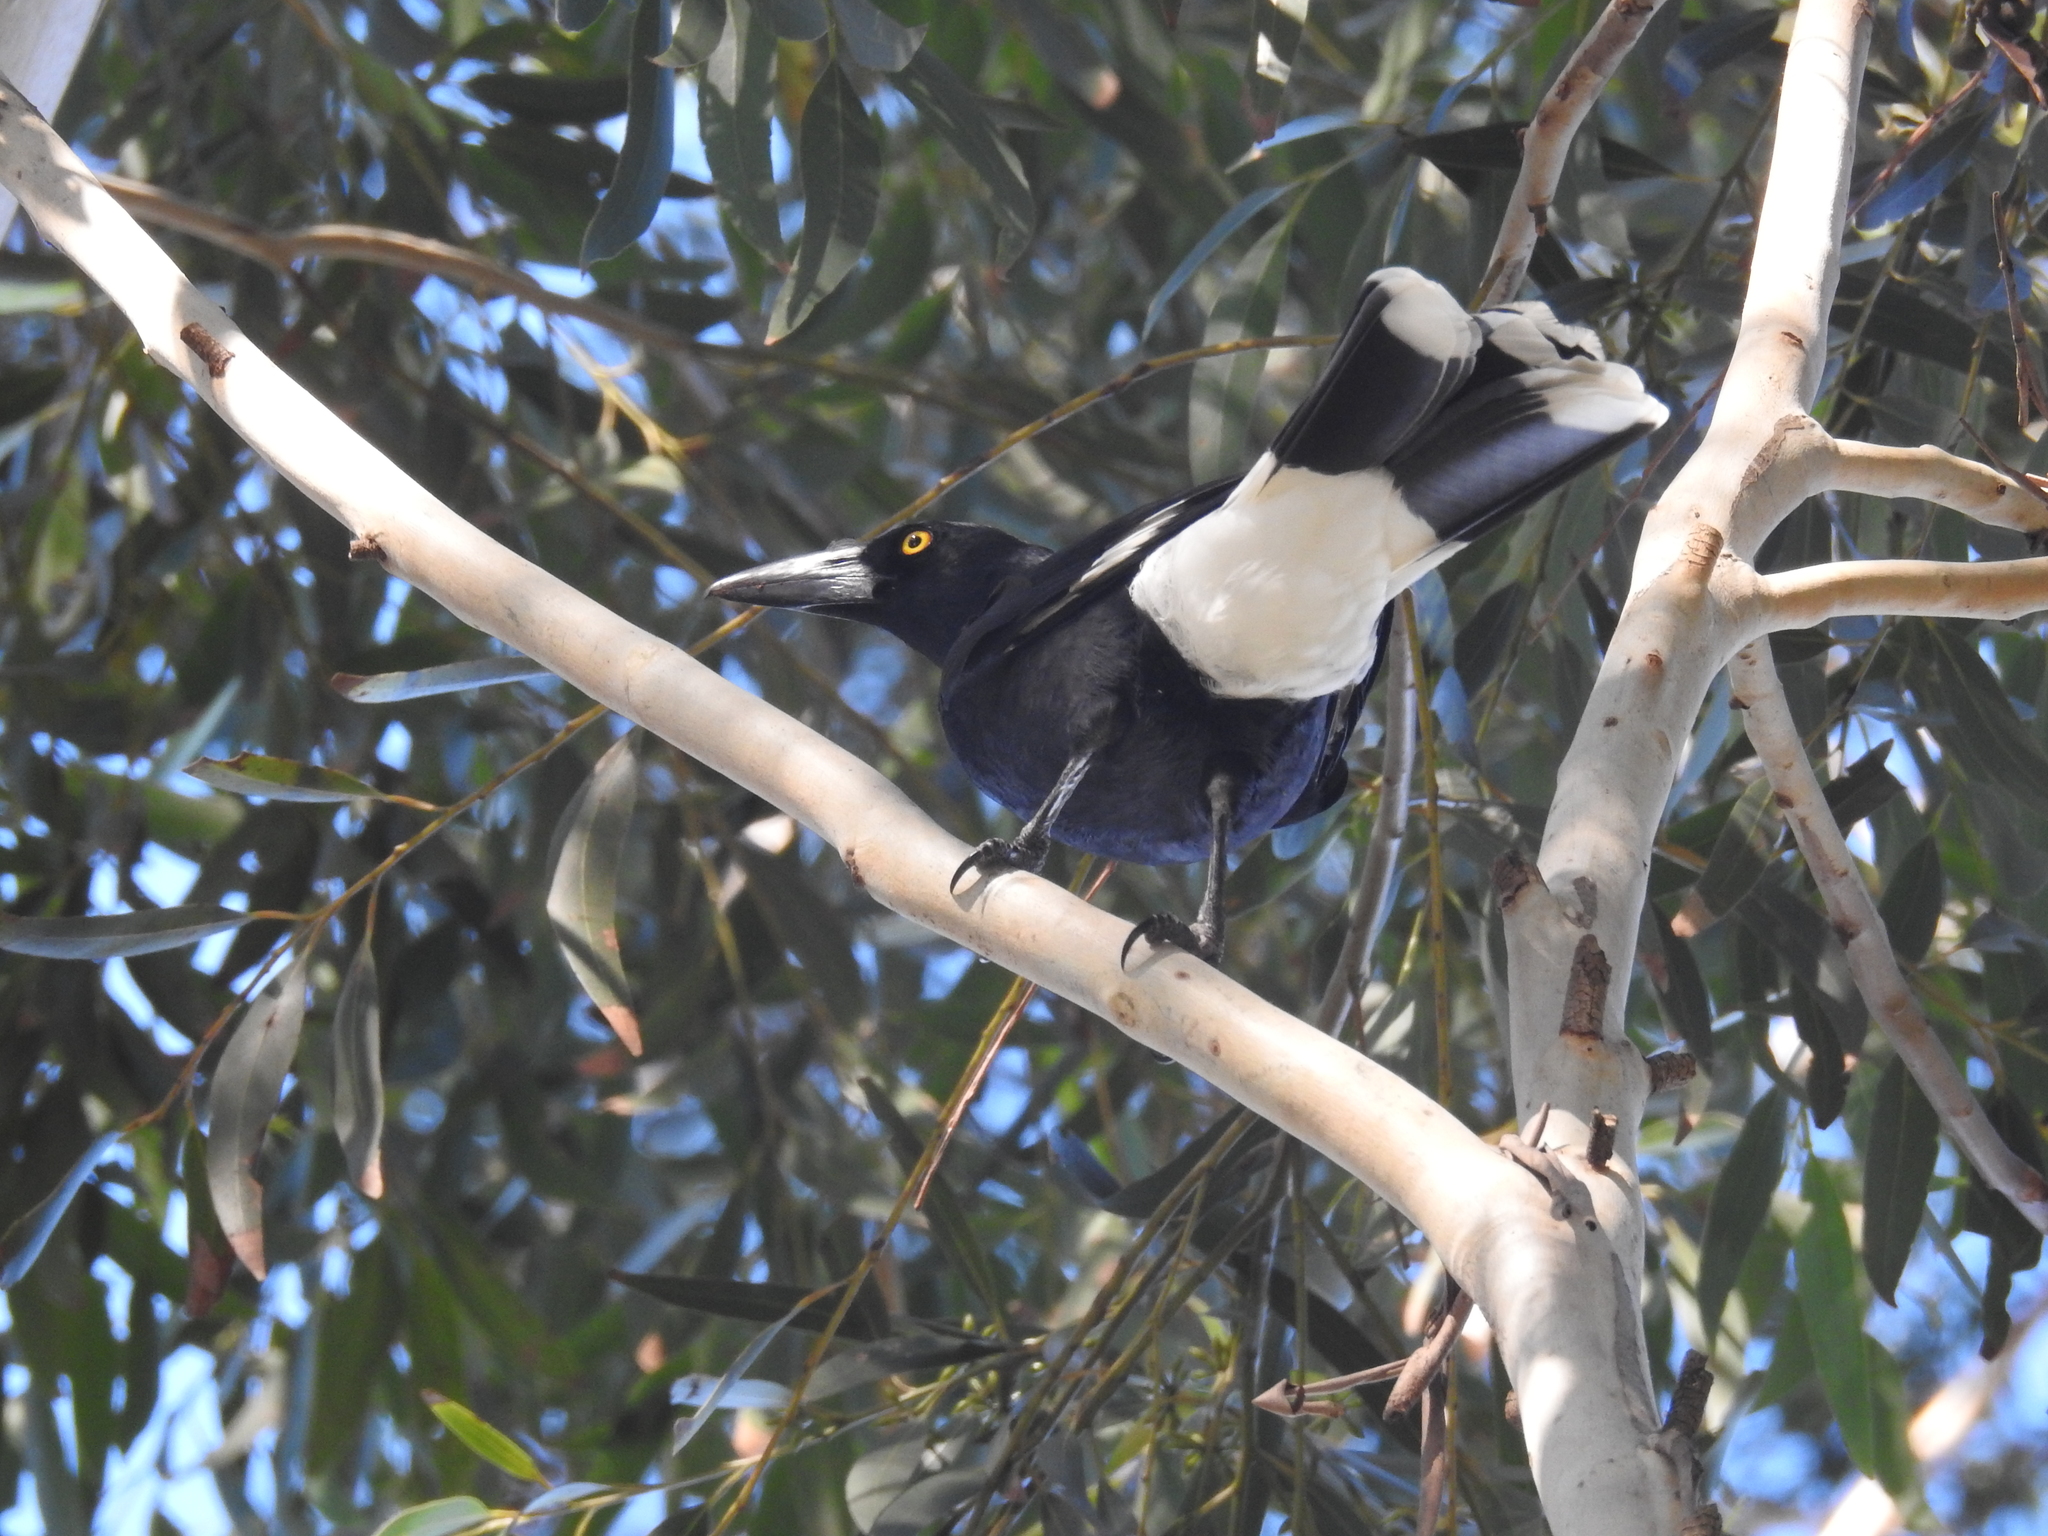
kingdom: Animalia
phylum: Chordata
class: Aves
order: Passeriformes
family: Cracticidae
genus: Strepera
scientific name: Strepera graculina
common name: Pied currawong
